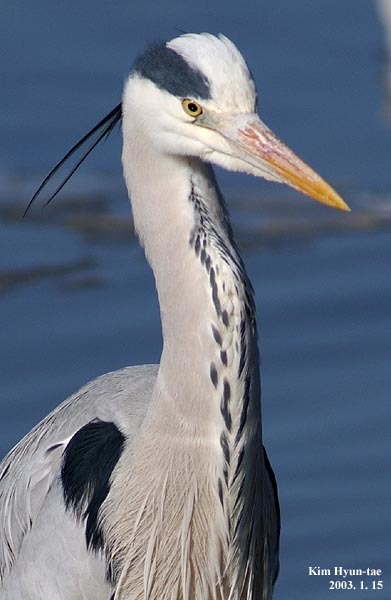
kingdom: Animalia
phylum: Chordata
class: Aves
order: Pelecaniformes
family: Ardeidae
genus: Ardea
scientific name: Ardea cinerea
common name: Grey heron
